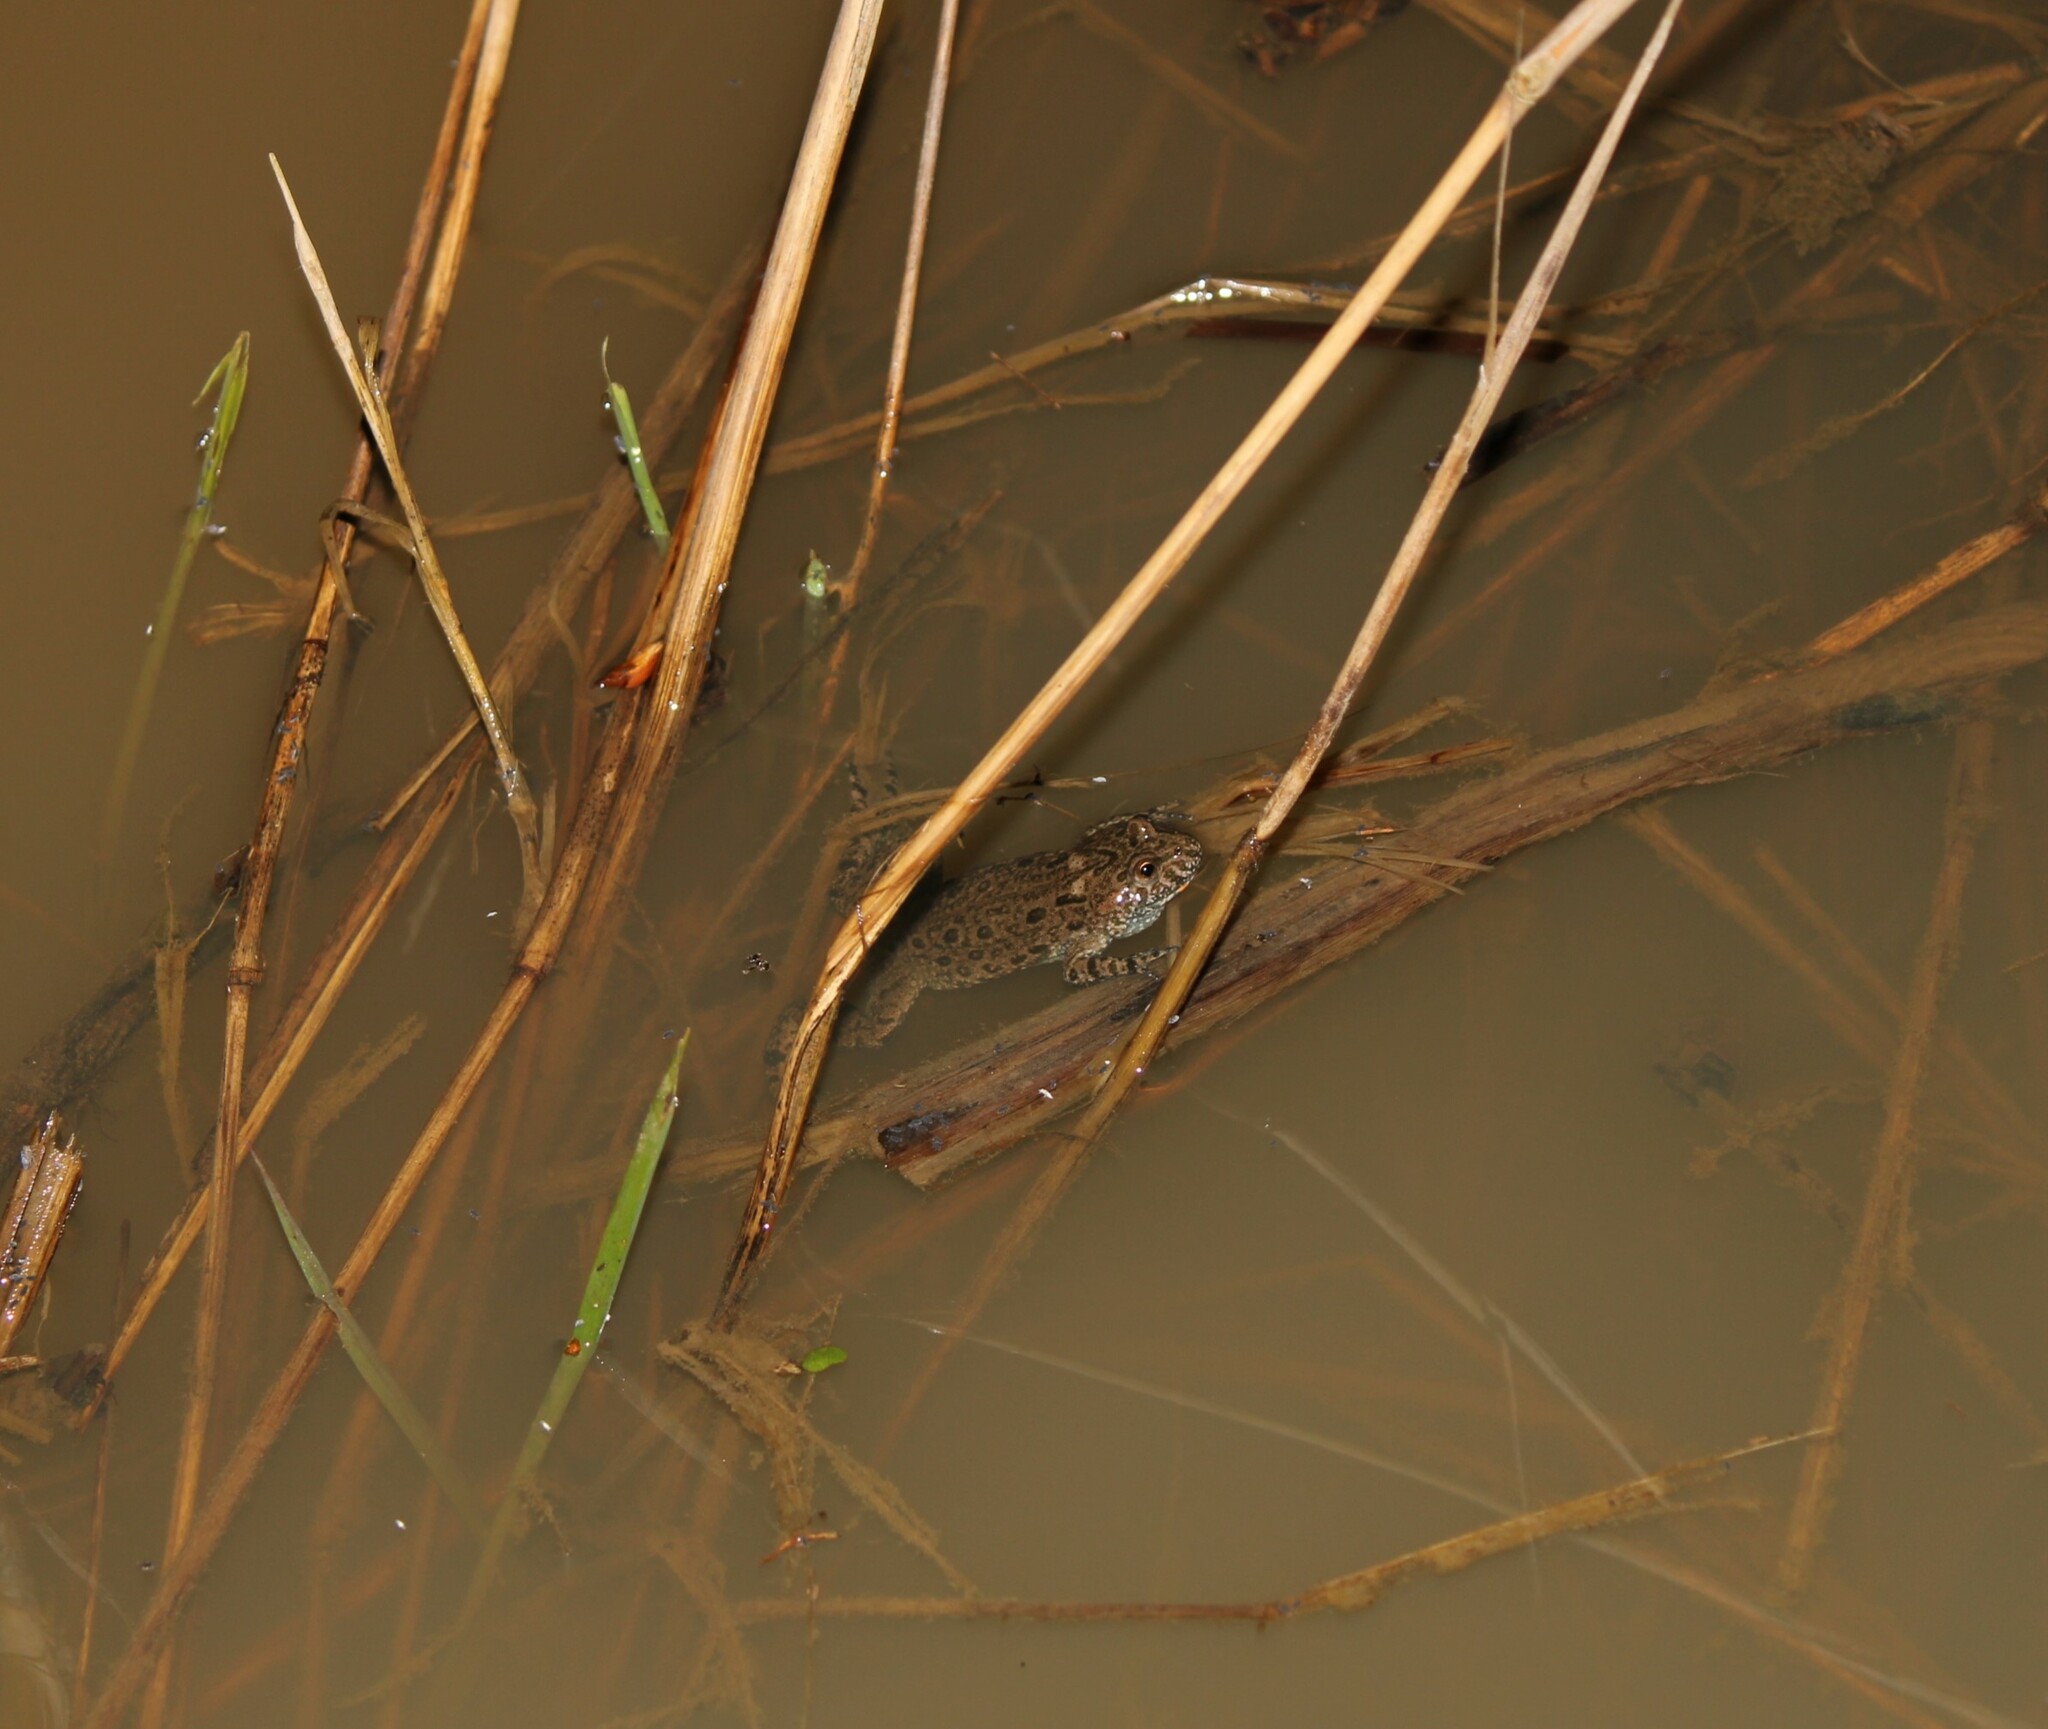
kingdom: Animalia
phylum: Chordata
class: Amphibia
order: Anura
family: Bombinatoridae
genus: Bombina
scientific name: Bombina bombina
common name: Fire-bellied toad
